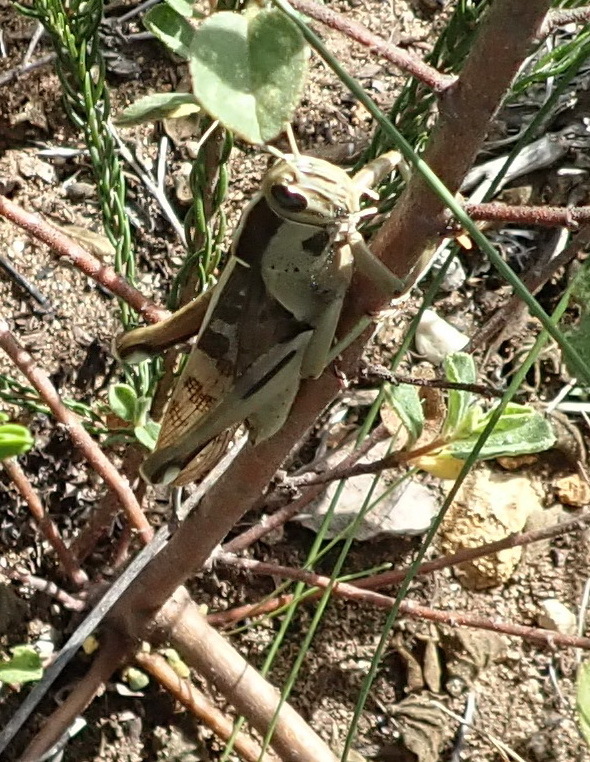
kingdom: Animalia
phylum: Arthropoda
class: Insecta
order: Orthoptera
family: Acrididae
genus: Acanthacris
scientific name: Acanthacris ruficornis
